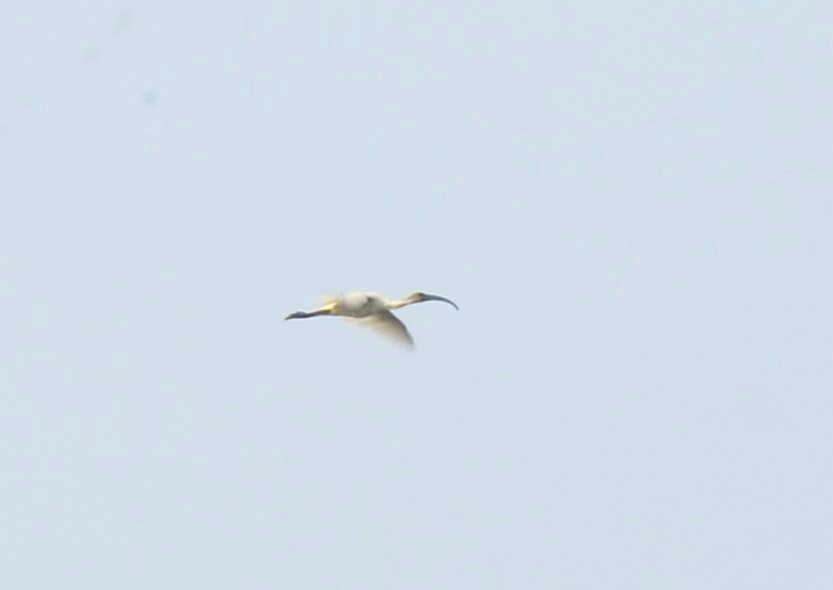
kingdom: Animalia
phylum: Chordata
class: Aves
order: Pelecaniformes
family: Threskiornithidae
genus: Threskiornis
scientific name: Threskiornis melanocephalus
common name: Black-headed ibis
